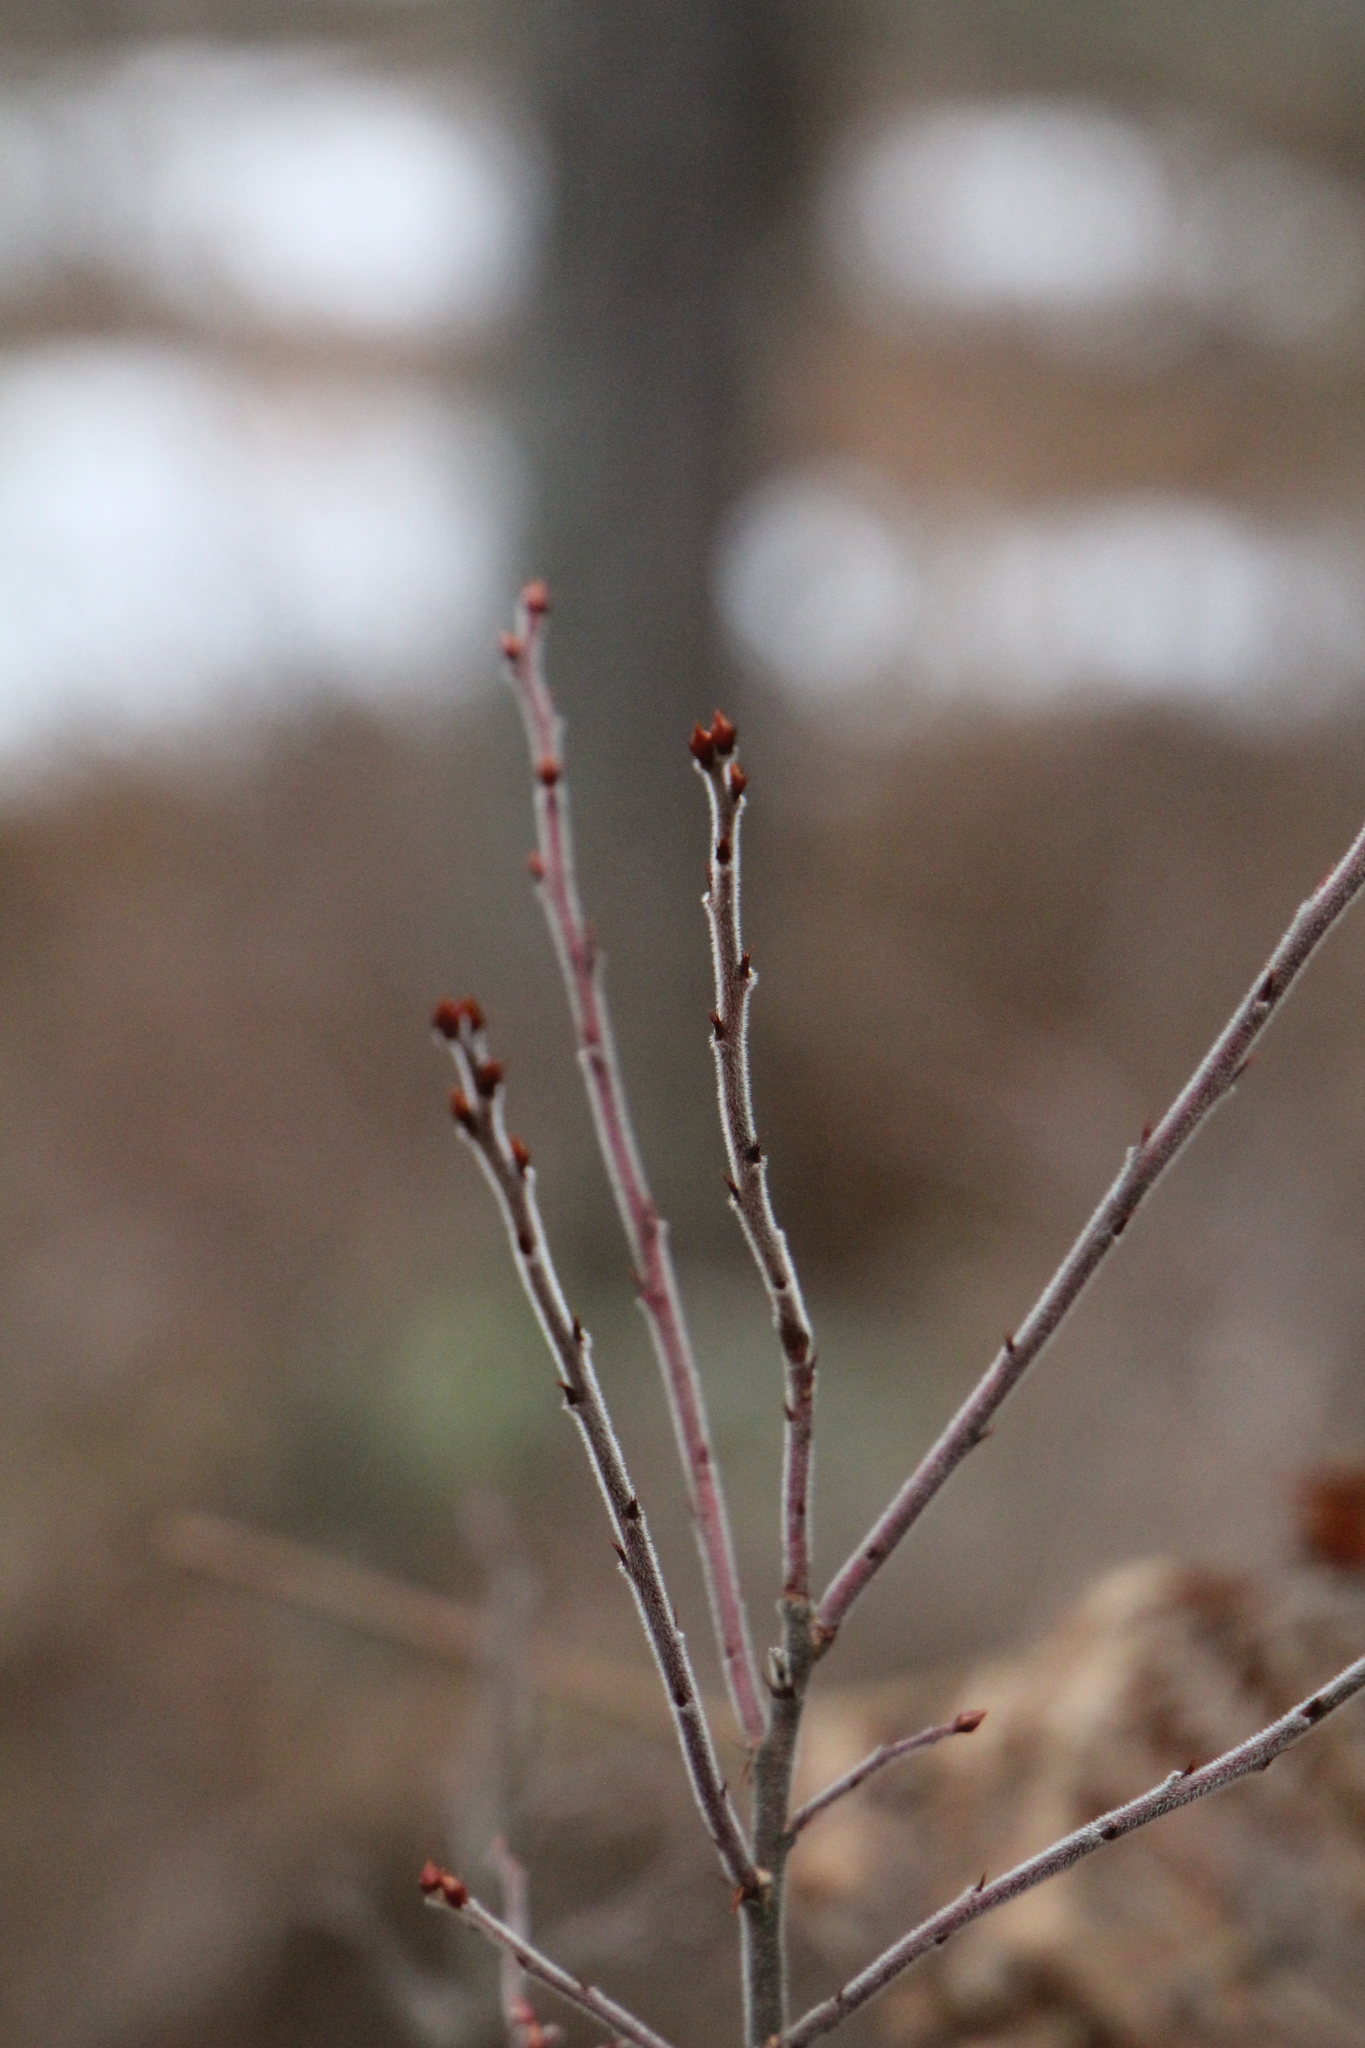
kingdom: Plantae
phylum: Tracheophyta
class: Magnoliopsida
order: Ericales
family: Ericaceae
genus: Vaccinium
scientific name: Vaccinium myrtilloides
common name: Canada blueberry
